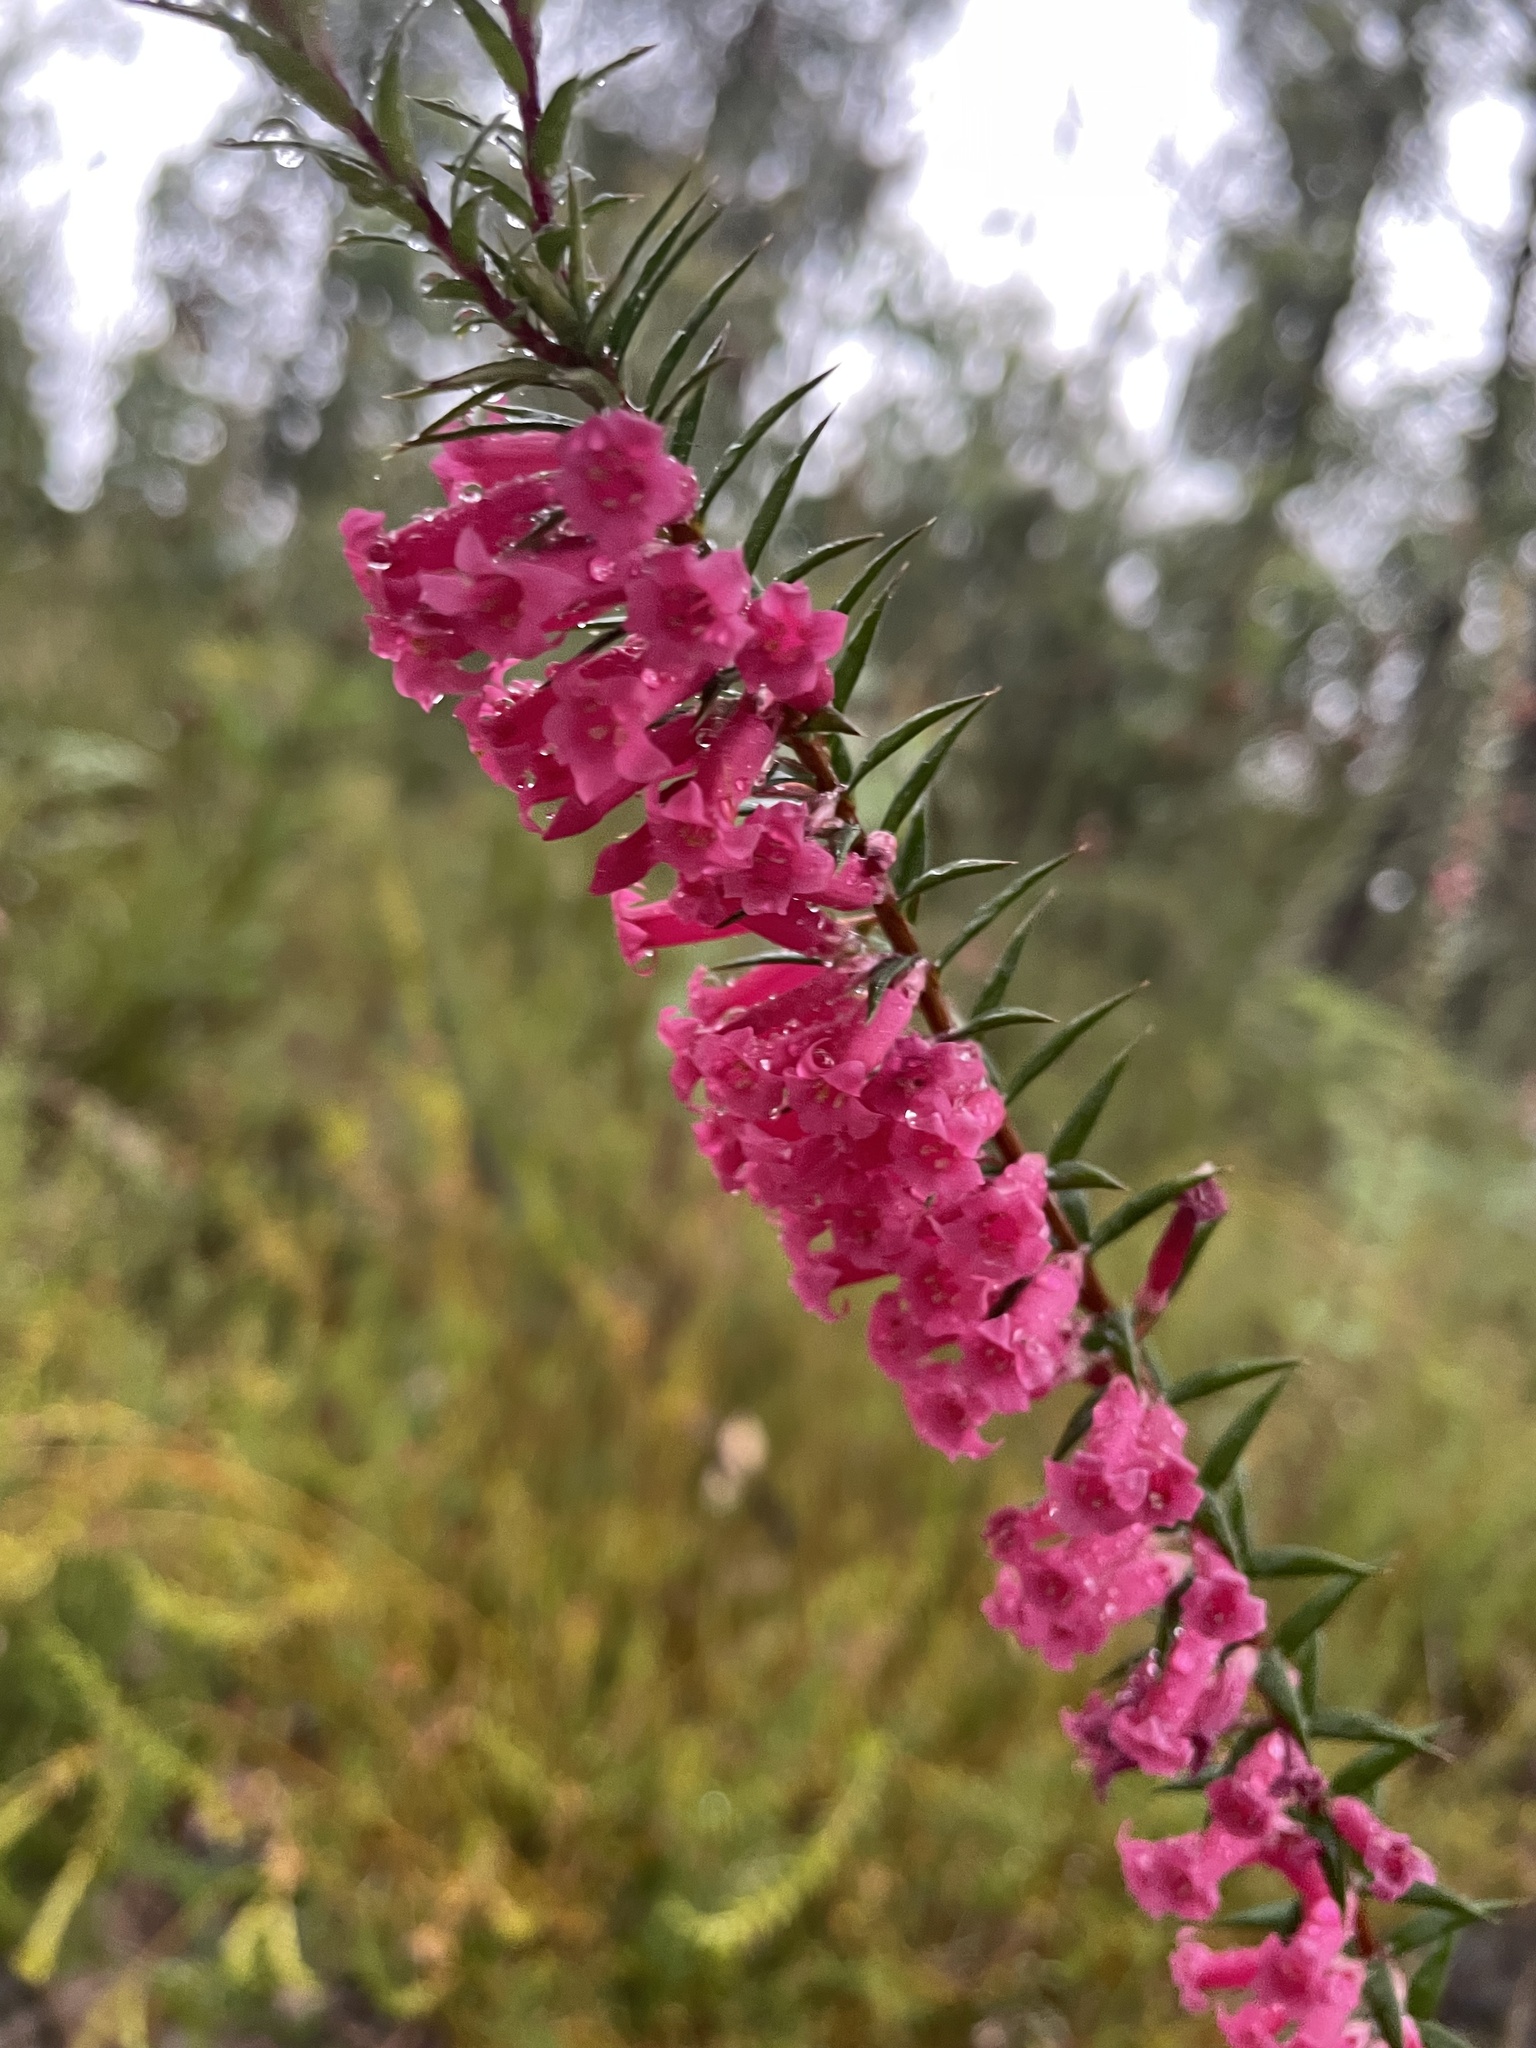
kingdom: Plantae
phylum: Tracheophyta
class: Magnoliopsida
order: Ericales
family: Ericaceae
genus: Epacris
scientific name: Epacris impressa
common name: Common-heath
